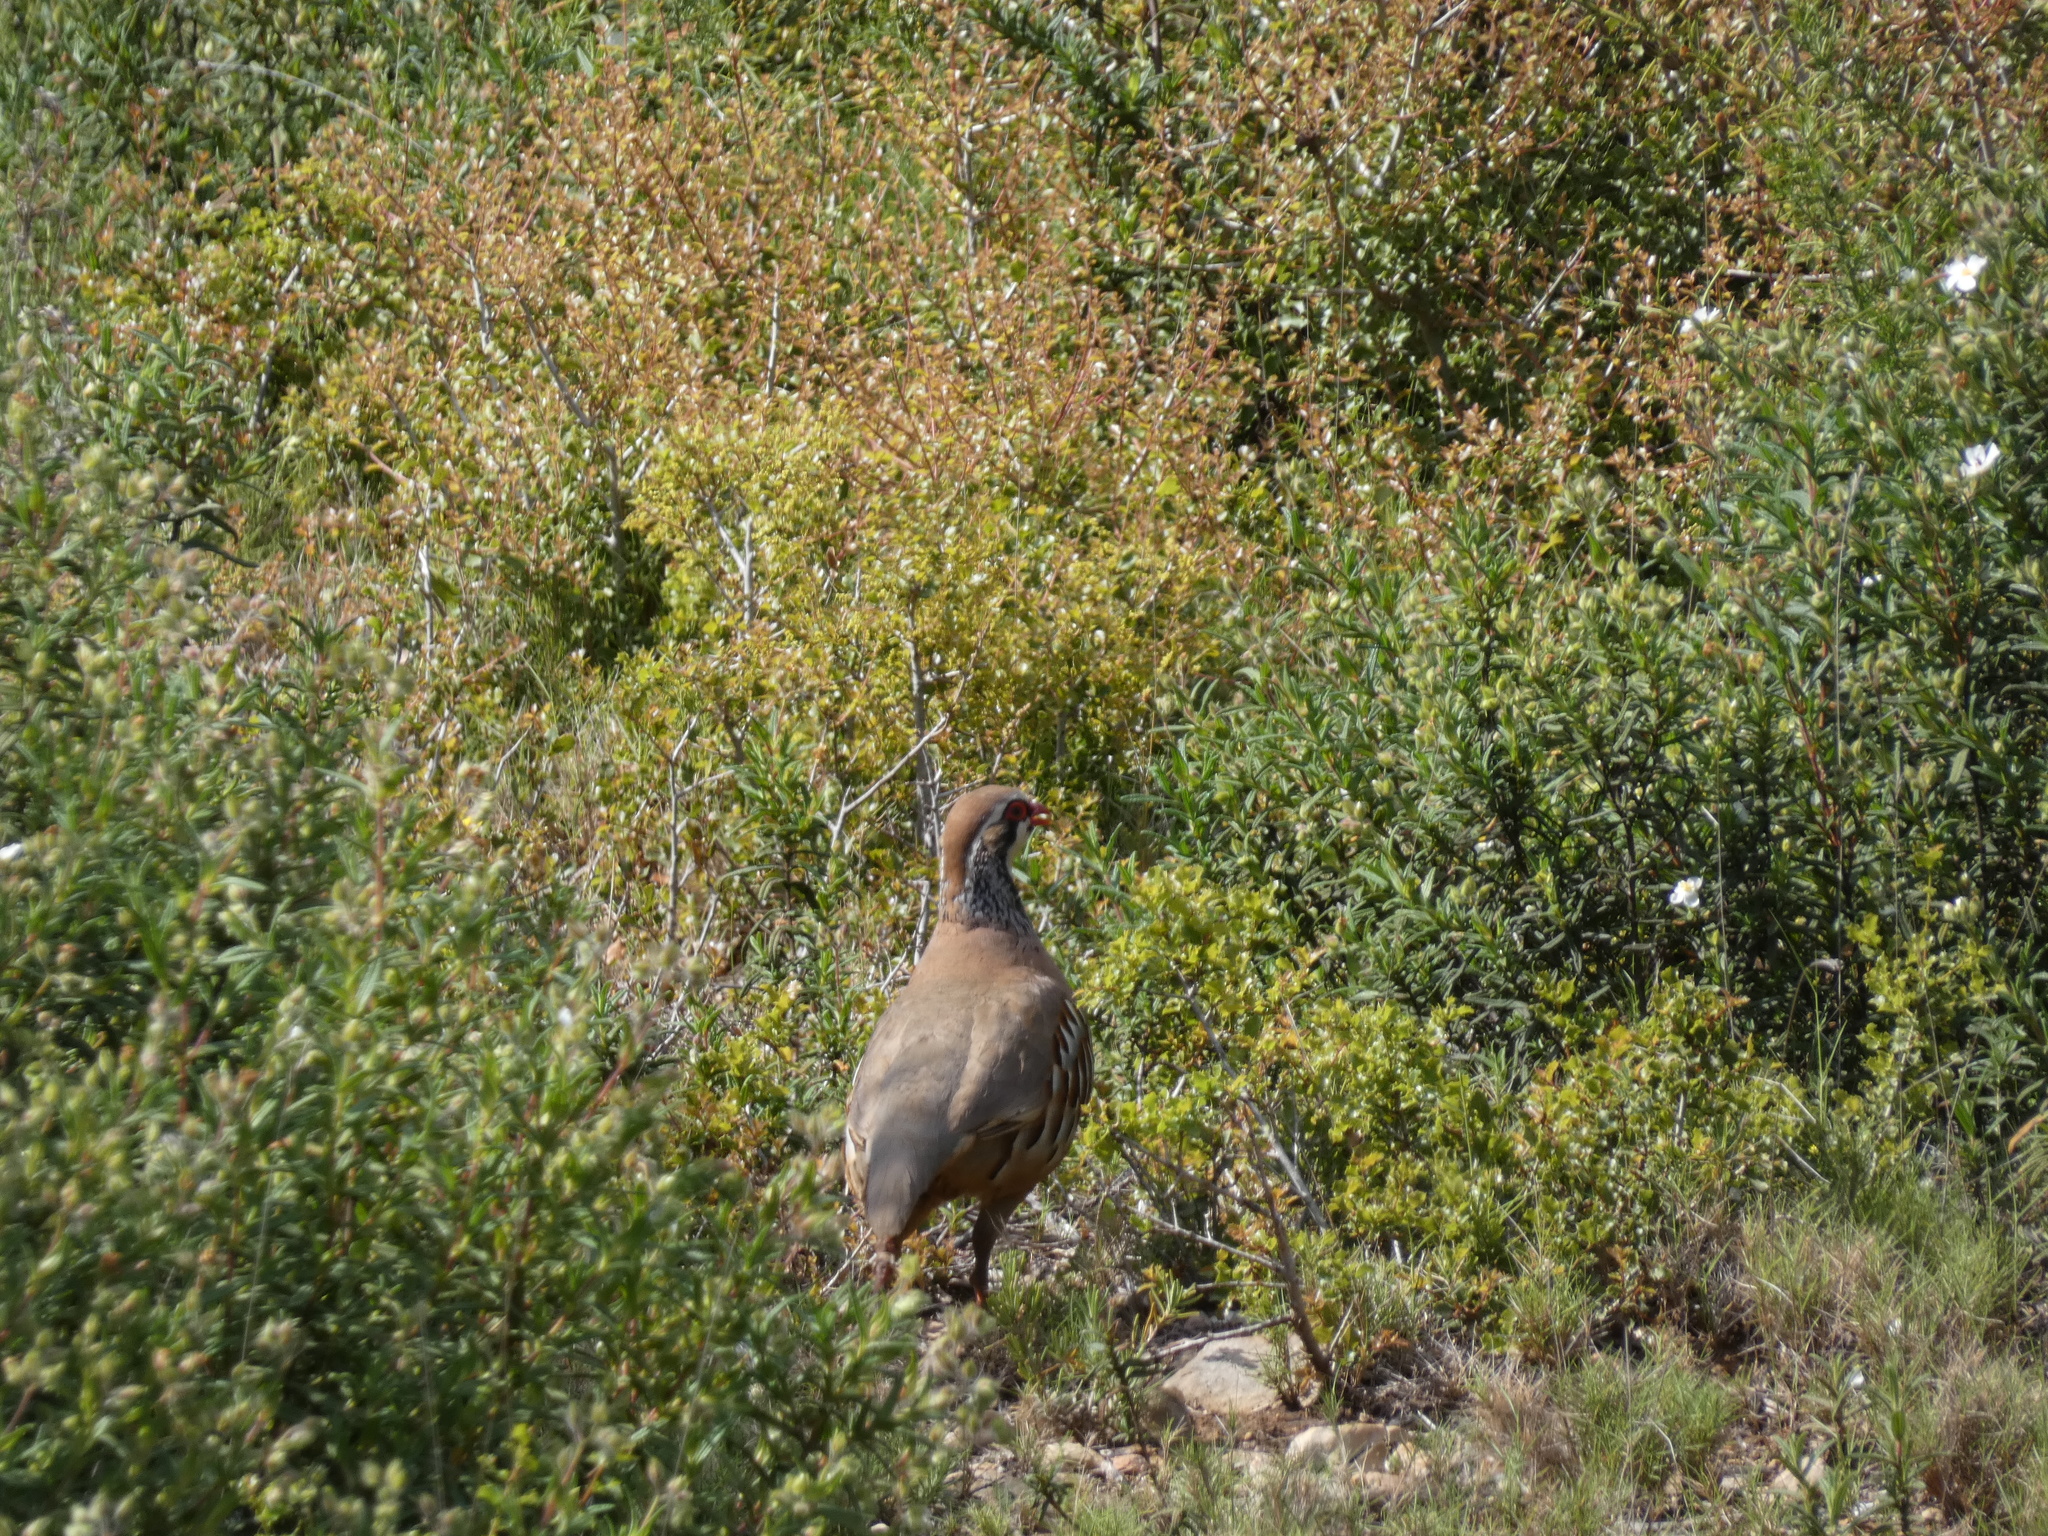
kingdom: Animalia
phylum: Chordata
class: Aves
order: Galliformes
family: Phasianidae
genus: Alectoris
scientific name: Alectoris rufa
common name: Red-legged partridge
